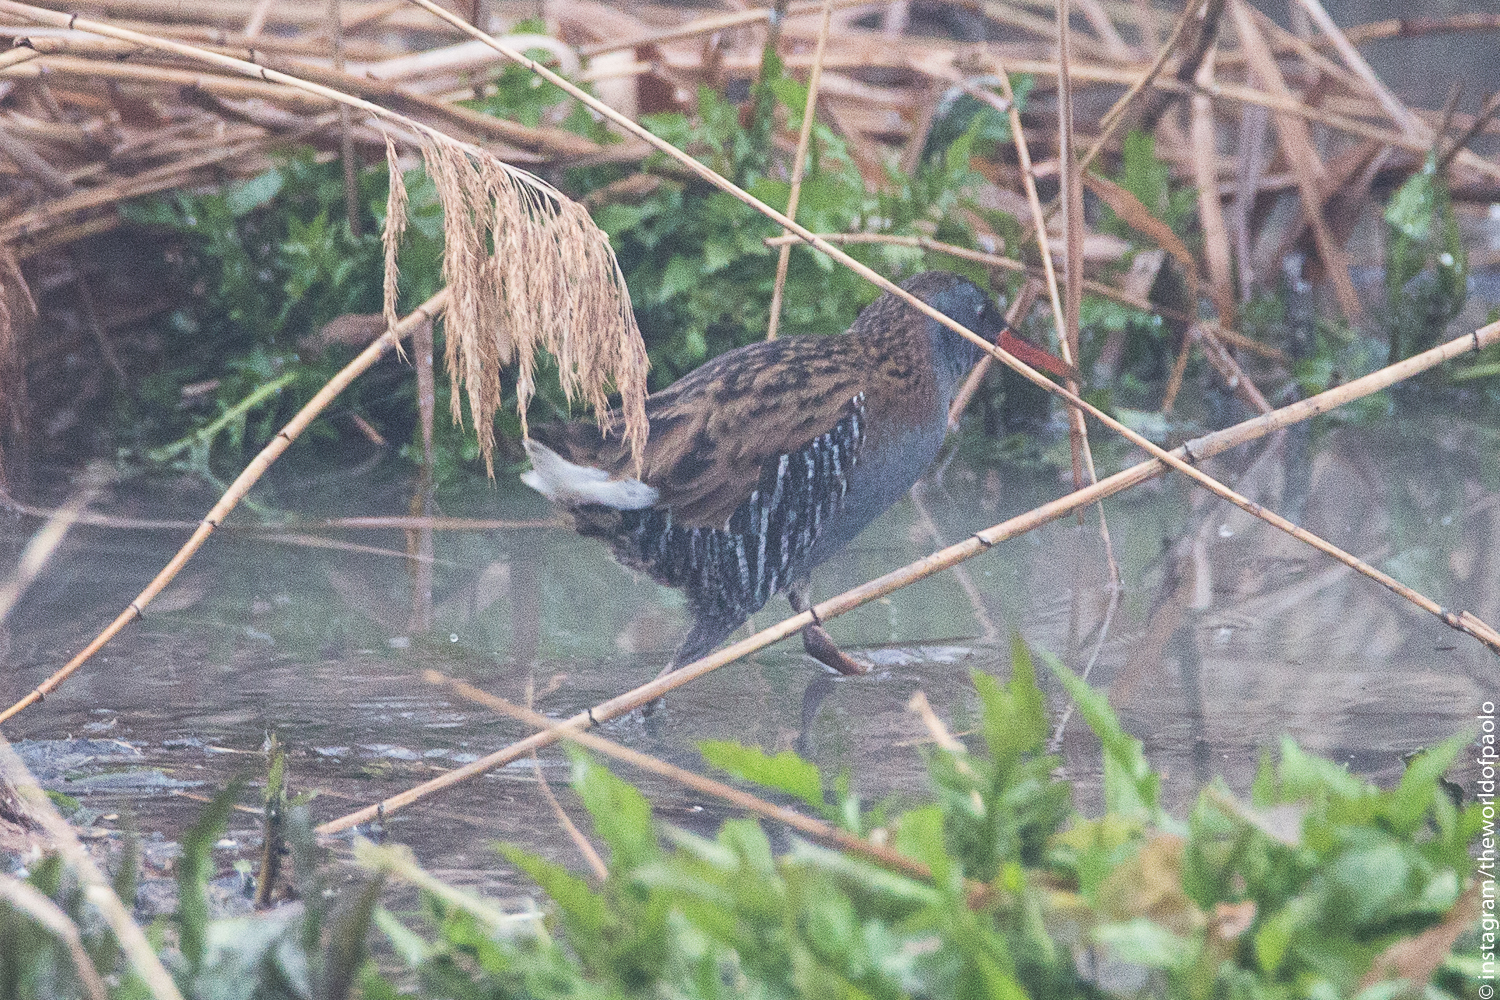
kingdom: Animalia
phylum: Chordata
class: Aves
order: Gruiformes
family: Rallidae
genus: Rallus
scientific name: Rallus aquaticus
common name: Water rail
